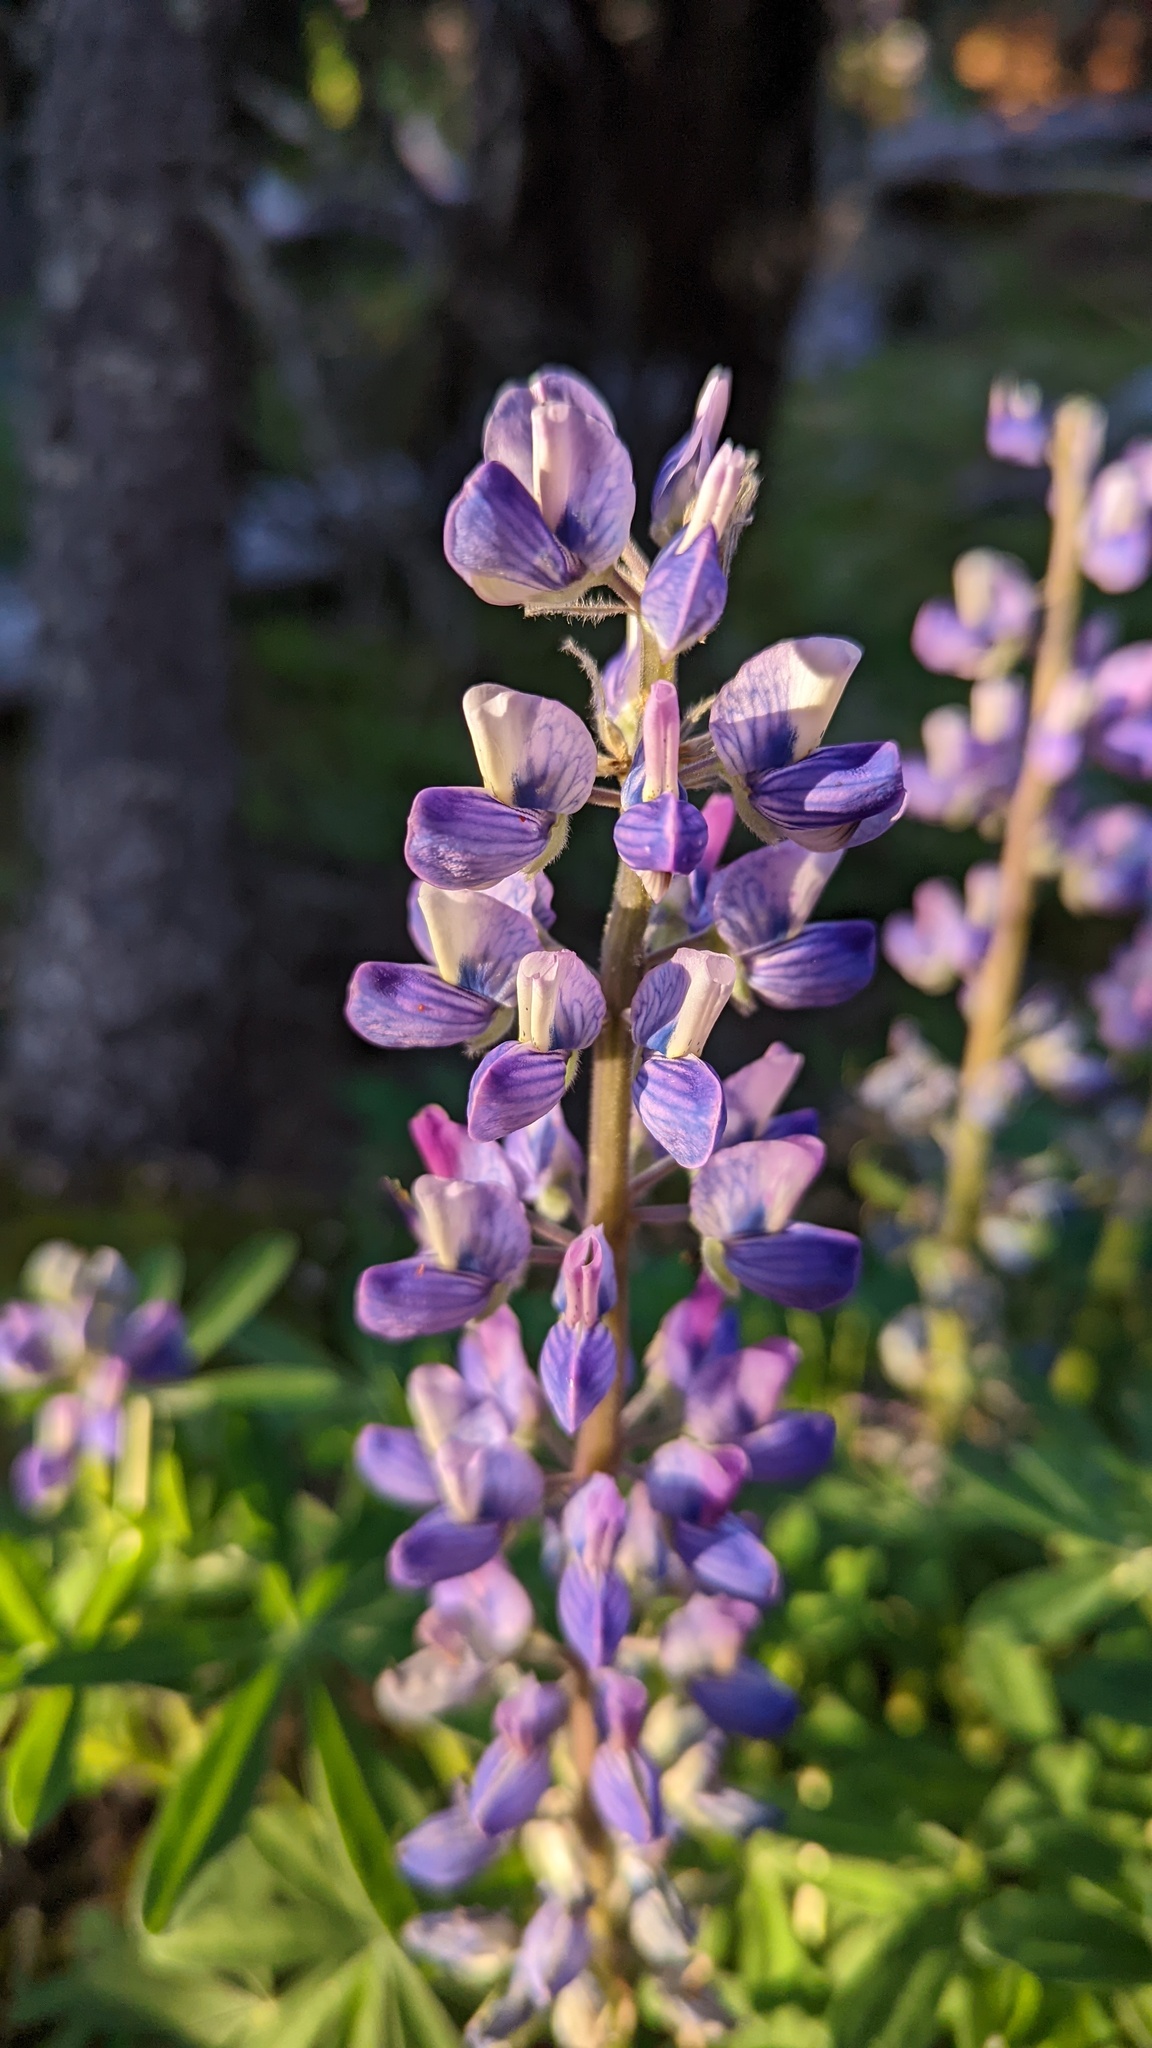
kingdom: Plantae
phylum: Tracheophyta
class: Magnoliopsida
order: Fabales
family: Fabaceae
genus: Lupinus
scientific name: Lupinus polyphyllus
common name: Garden lupin
